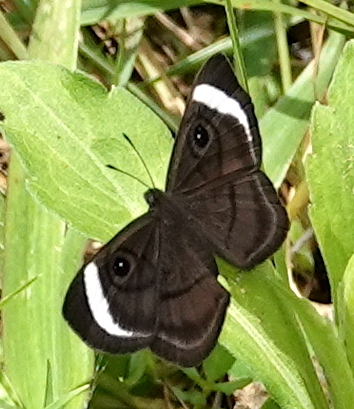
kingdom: Animalia
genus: Mesosemia
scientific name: Mesosemia mevania
